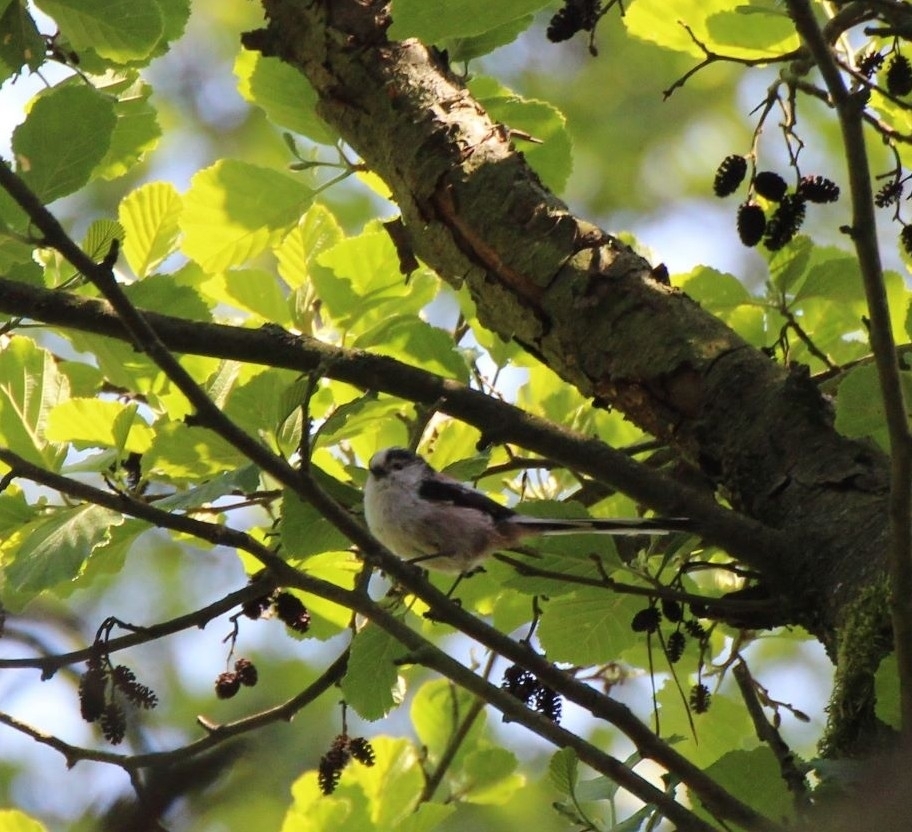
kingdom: Animalia
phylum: Chordata
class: Aves
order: Passeriformes
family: Aegithalidae
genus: Aegithalos
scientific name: Aegithalos caudatus
